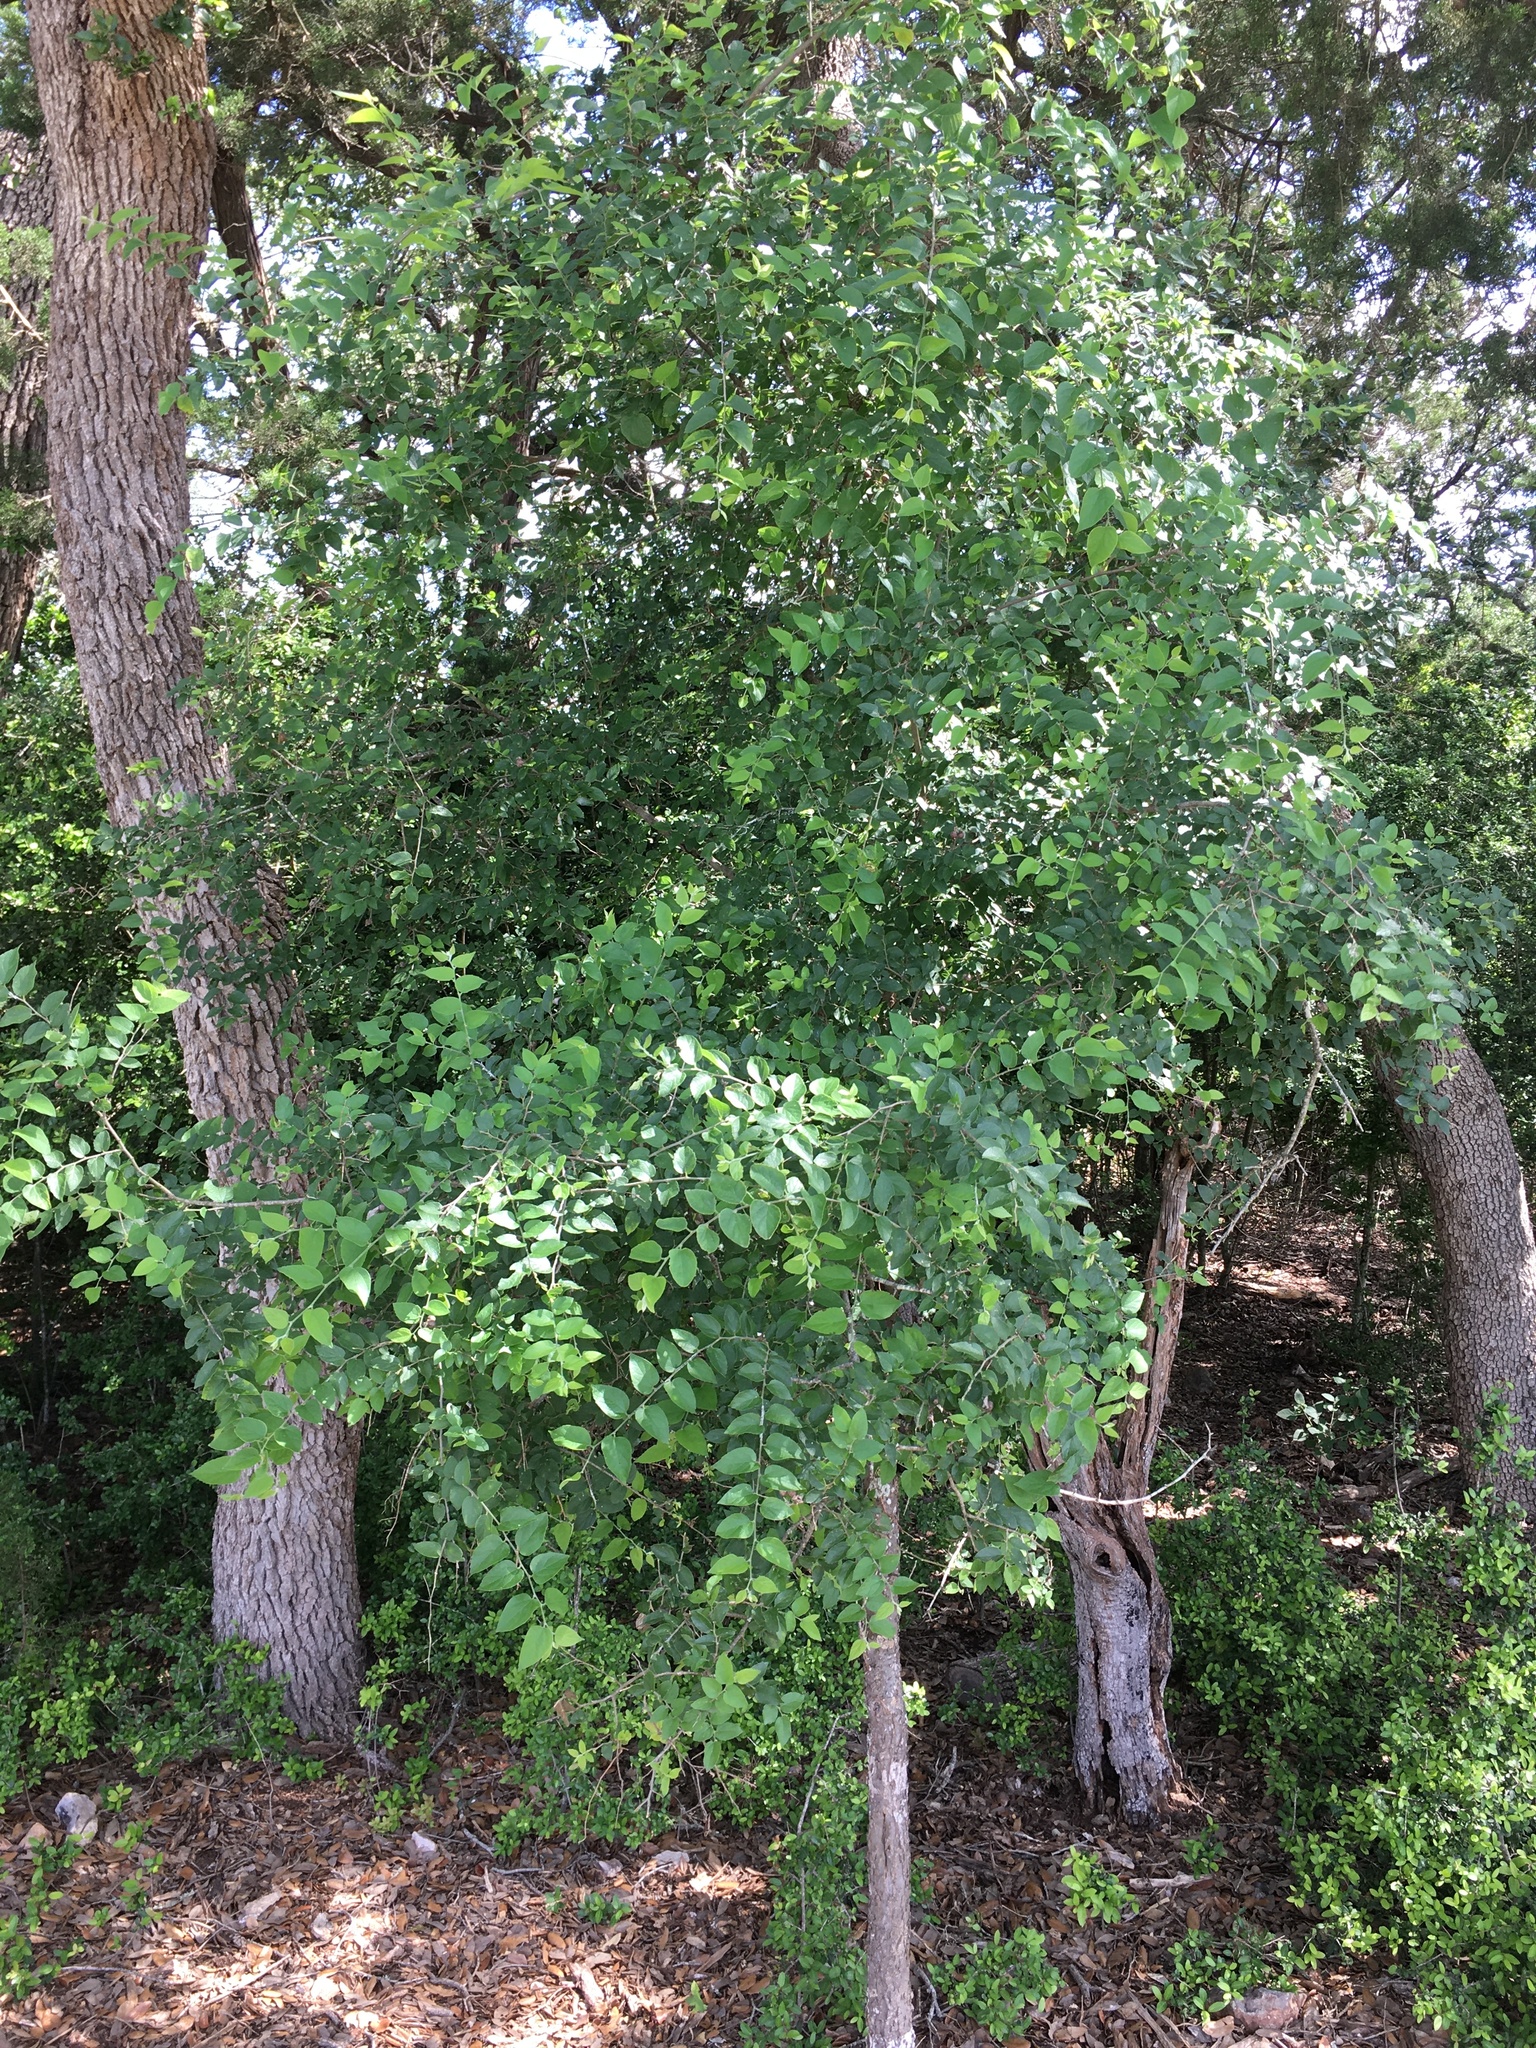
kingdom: Plantae
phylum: Tracheophyta
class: Magnoliopsida
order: Rosales
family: Cannabaceae
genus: Celtis
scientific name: Celtis reticulata
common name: Netleaf hackberry
